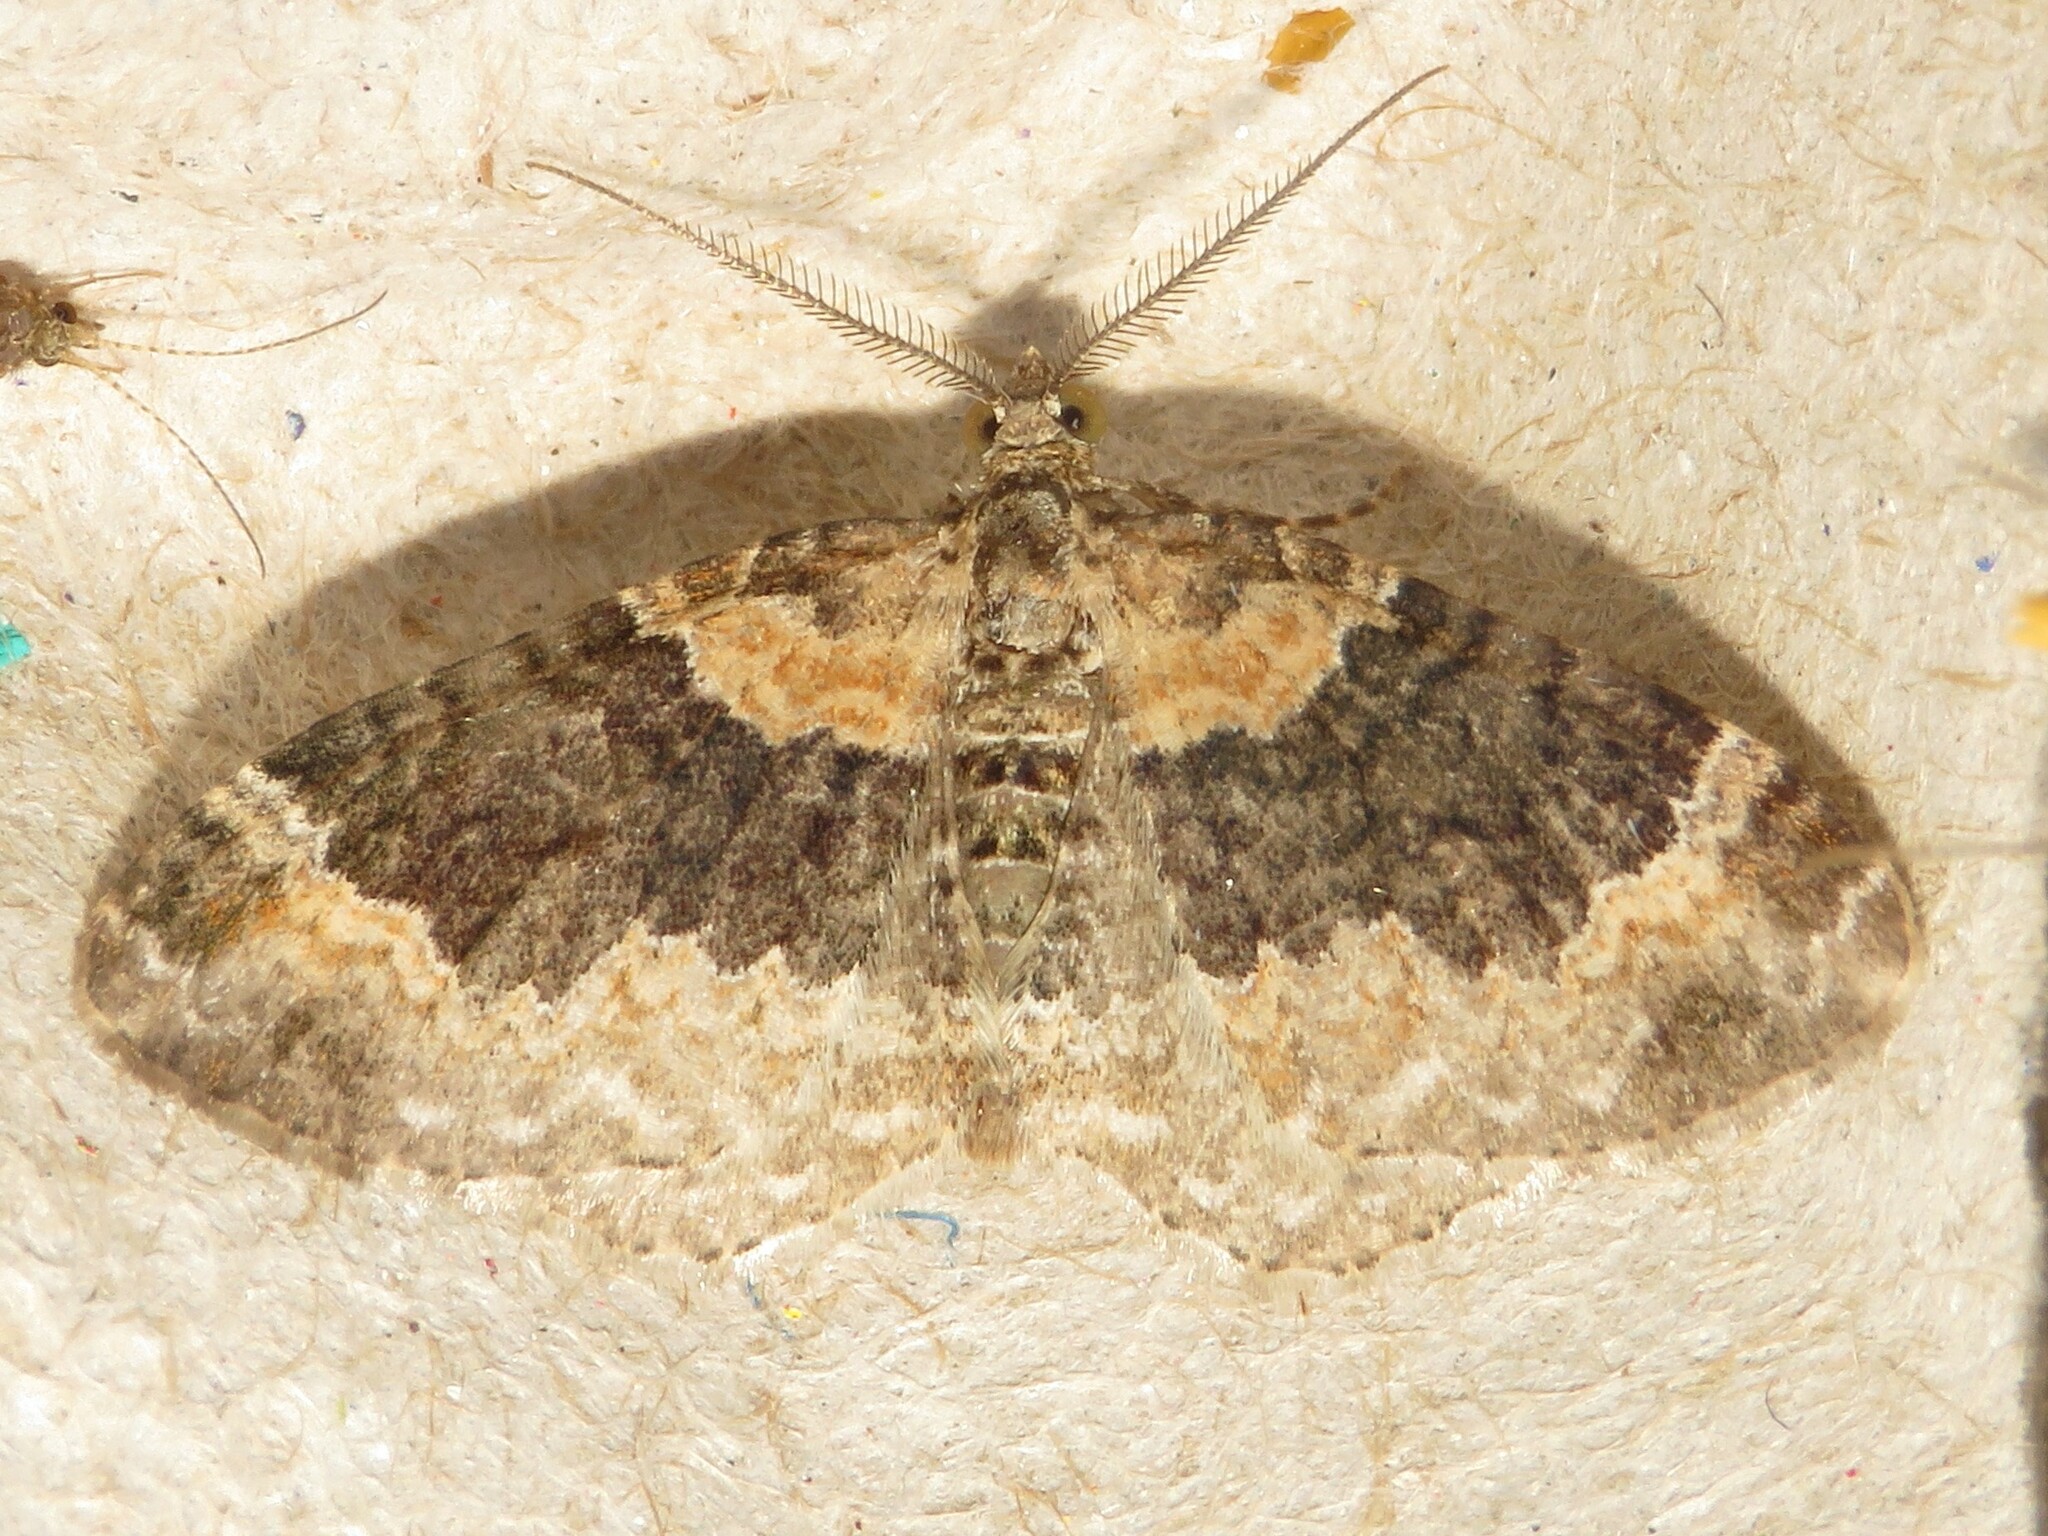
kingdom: Animalia
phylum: Arthropoda
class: Insecta
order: Lepidoptera
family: Geometridae
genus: Xanthorhoe
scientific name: Xanthorhoe ferrugata
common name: Dark-barred twin-spot carpet
